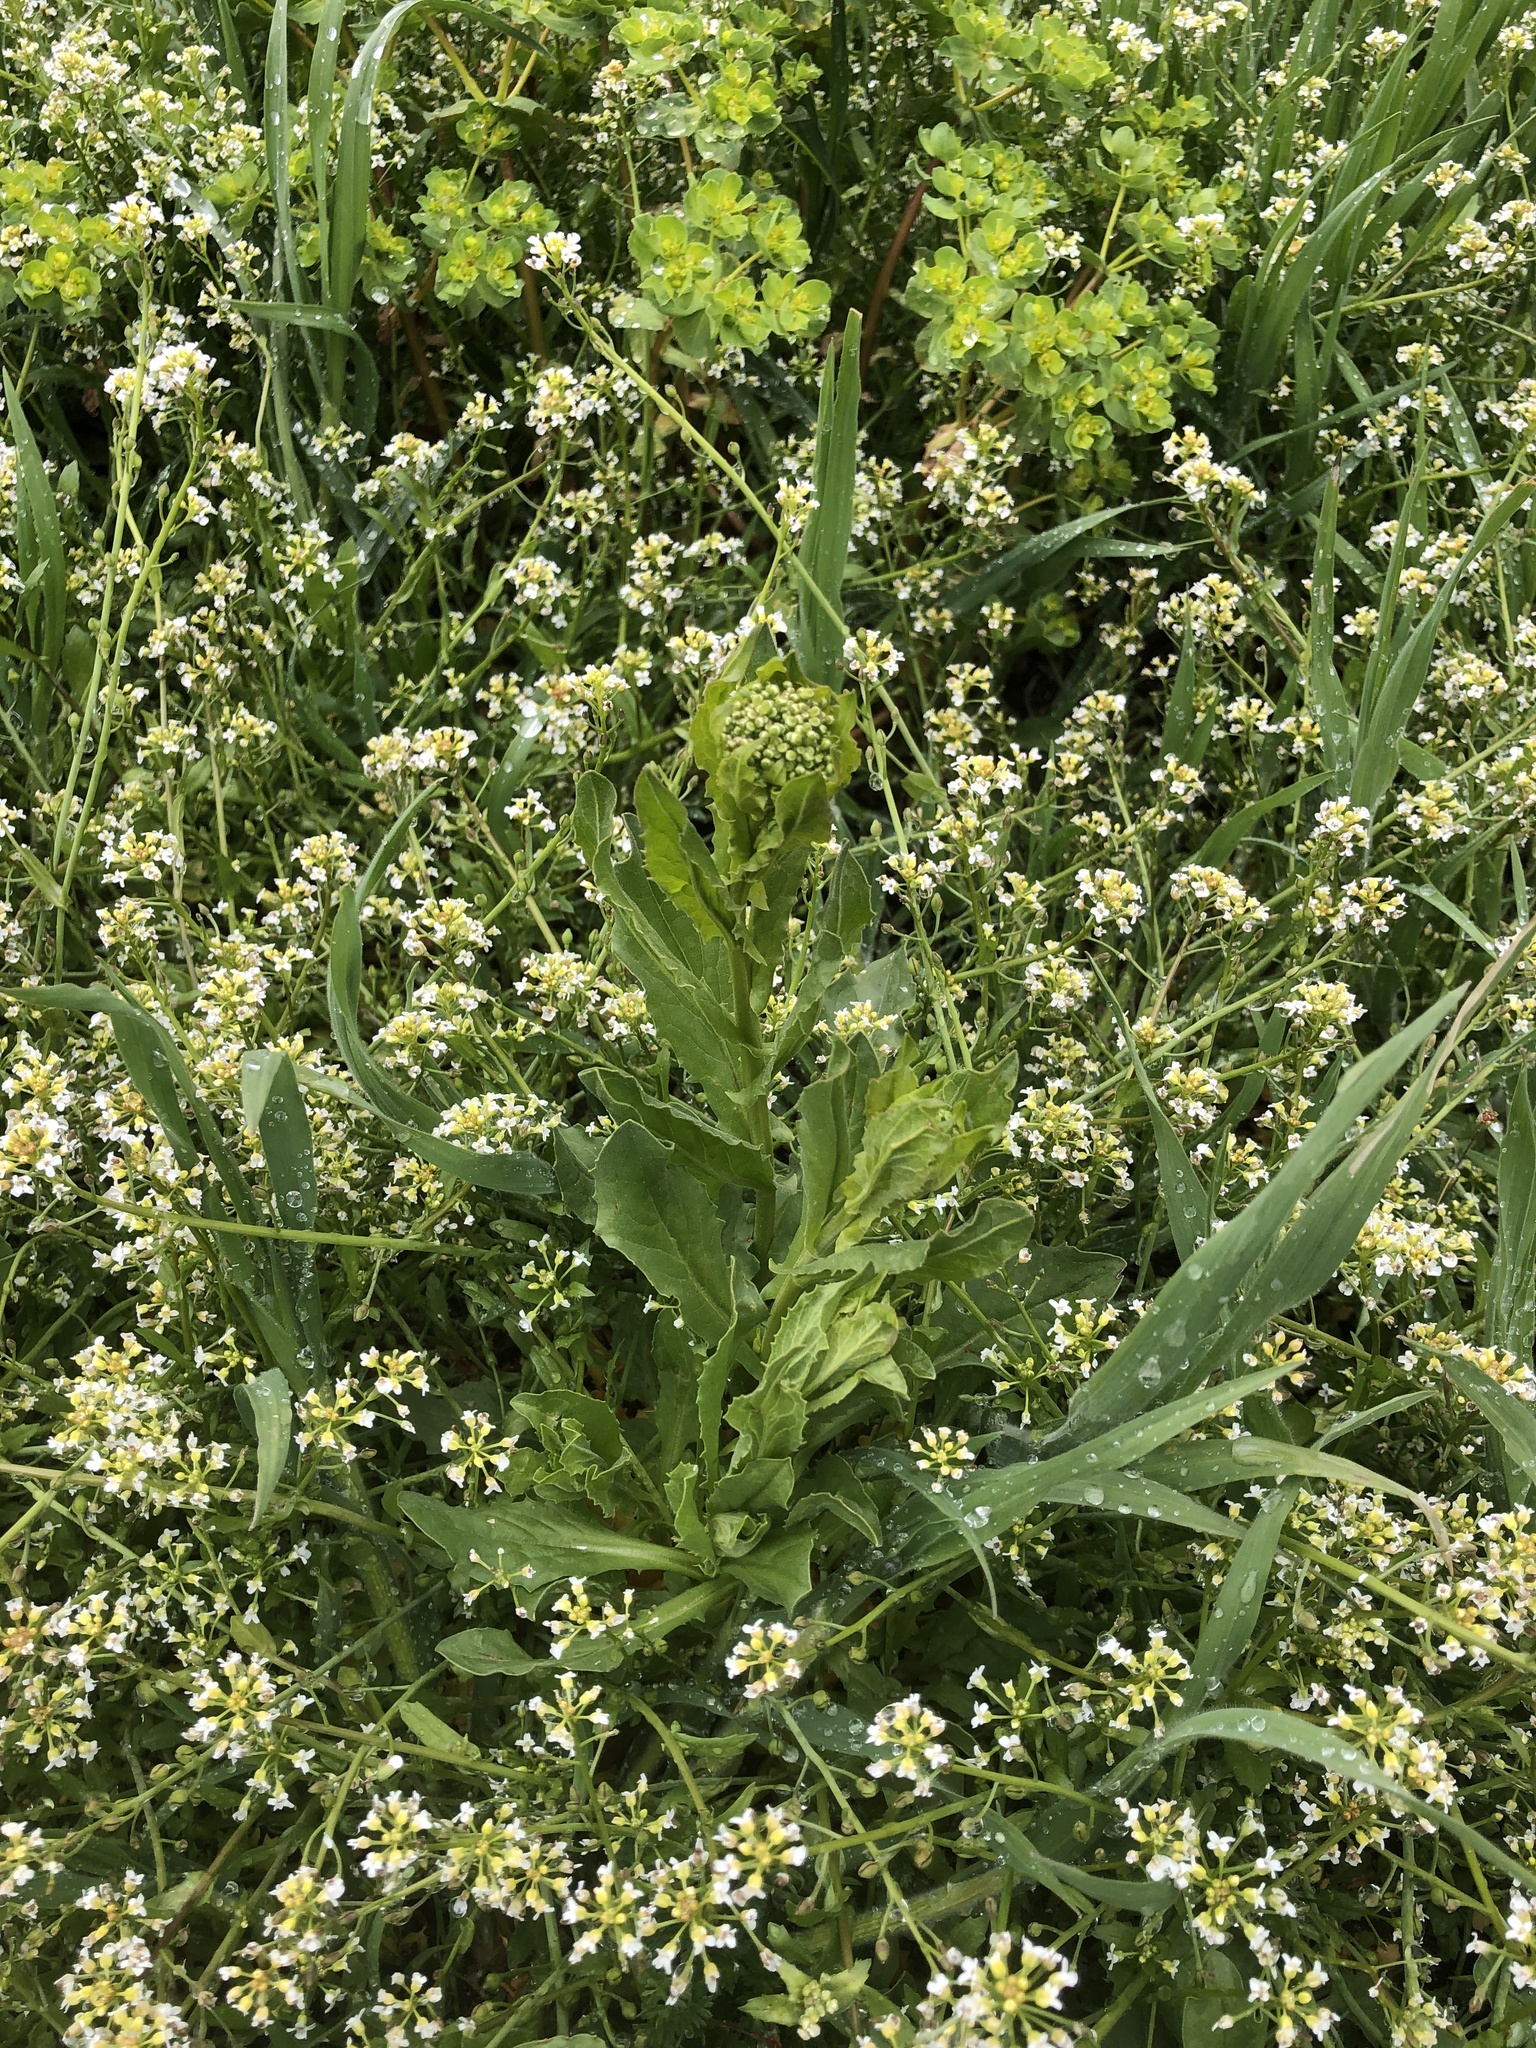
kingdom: Plantae
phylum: Tracheophyta
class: Magnoliopsida
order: Brassicales
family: Brassicaceae
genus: Lepidium
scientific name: Lepidium draba
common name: Hoary cress
